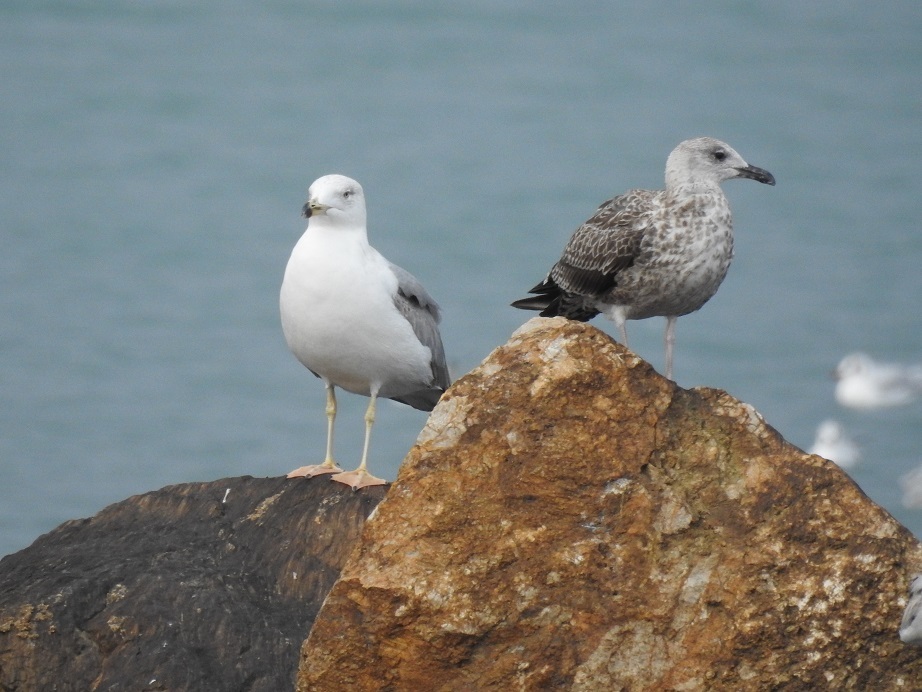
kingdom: Animalia
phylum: Chordata
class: Aves
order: Charadriiformes
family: Laridae
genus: Larus
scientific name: Larus michahellis
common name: Yellow-legged gull
